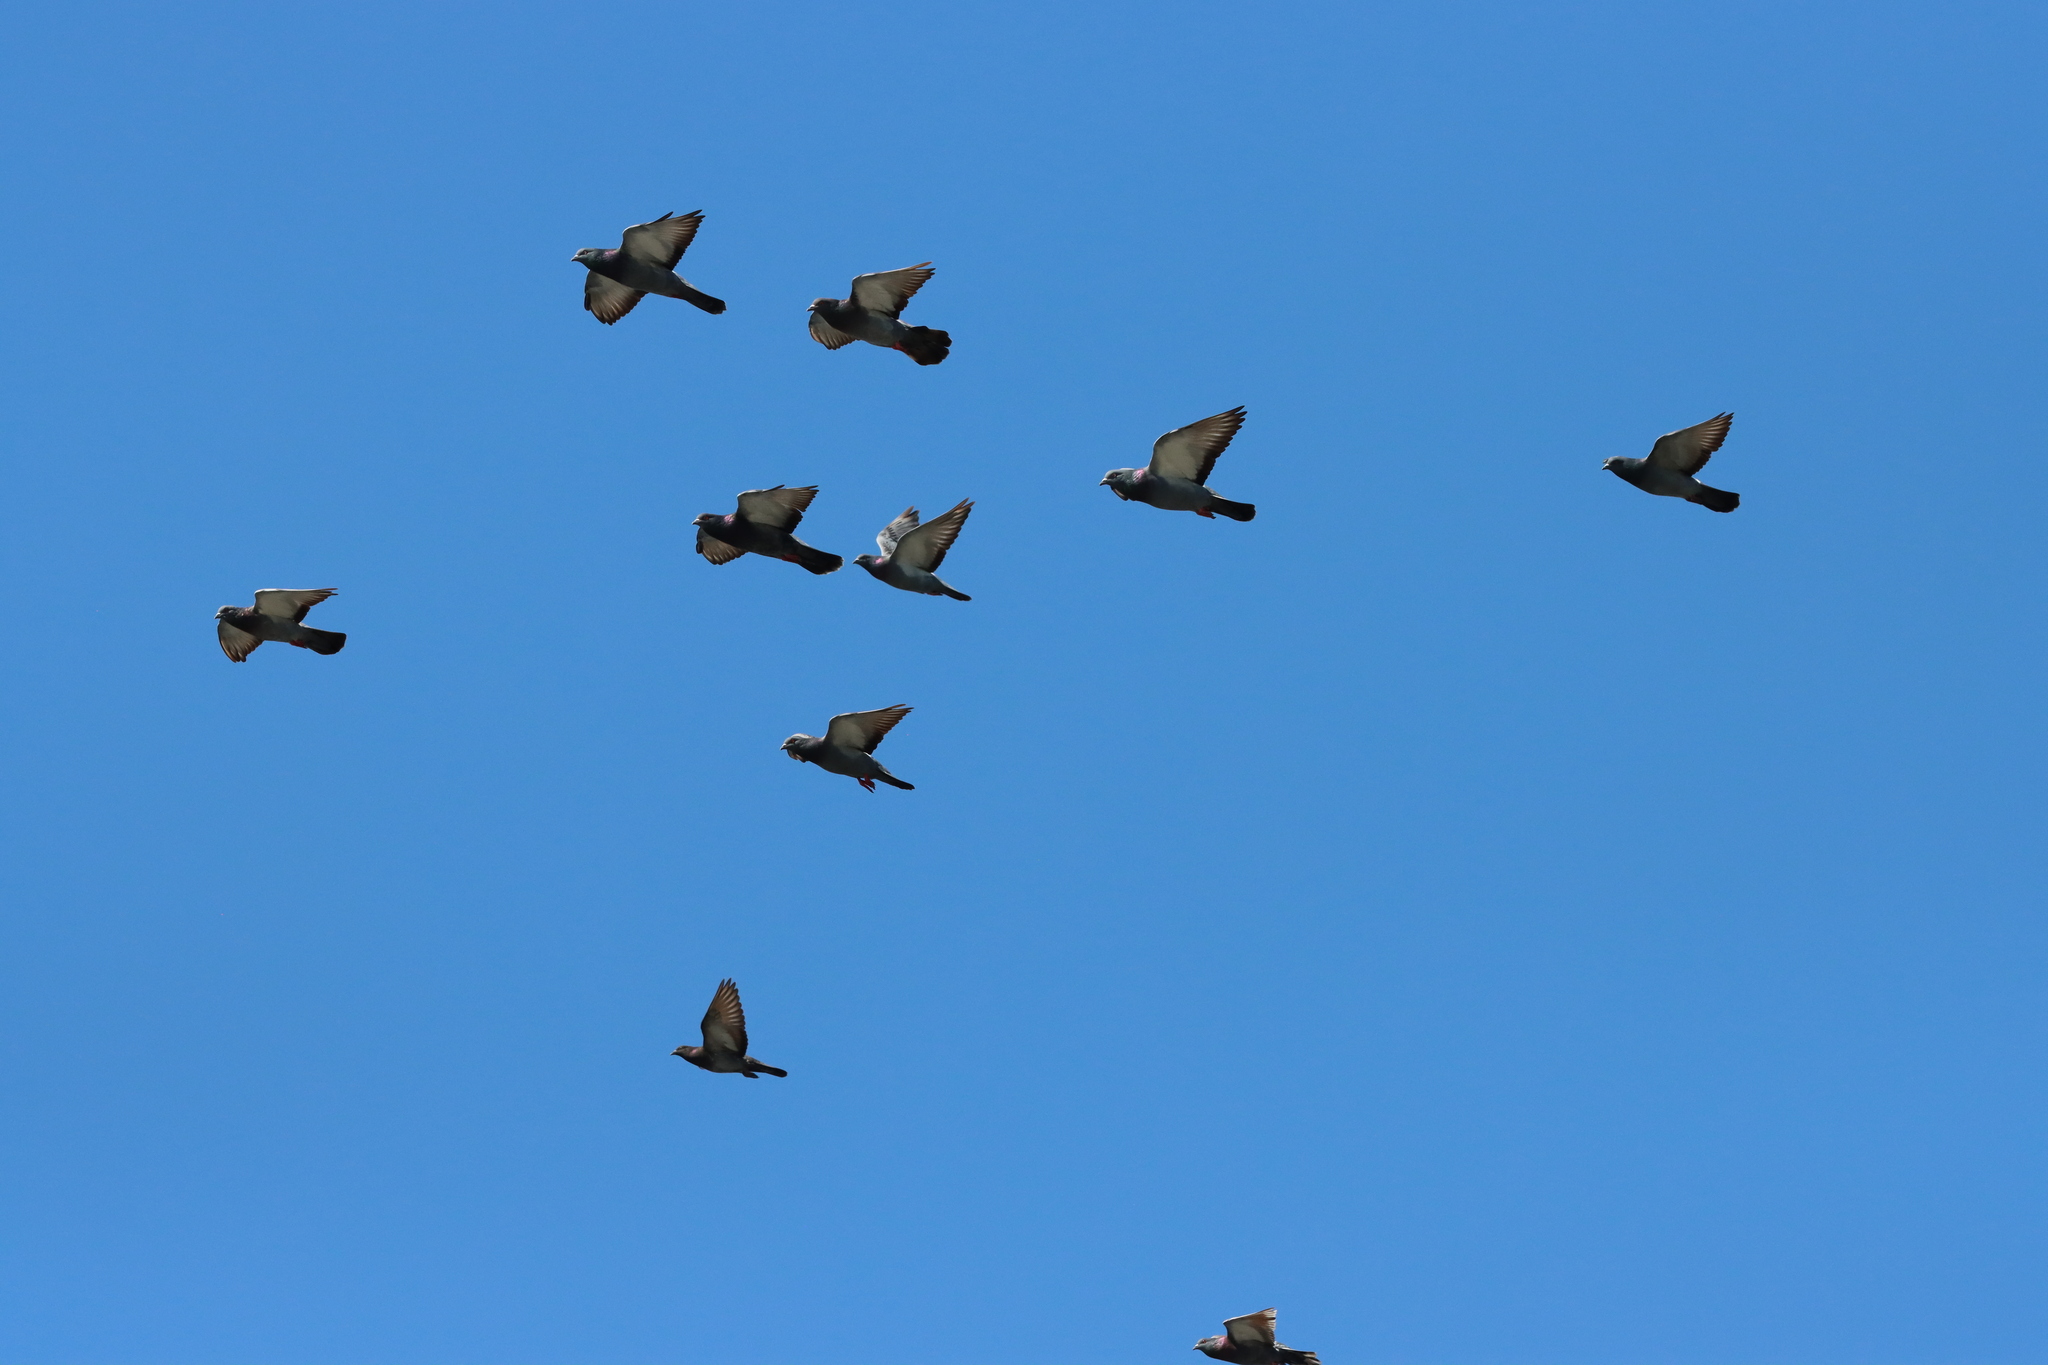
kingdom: Animalia
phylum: Chordata
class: Aves
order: Columbiformes
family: Columbidae
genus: Columba
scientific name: Columba livia
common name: Rock pigeon
